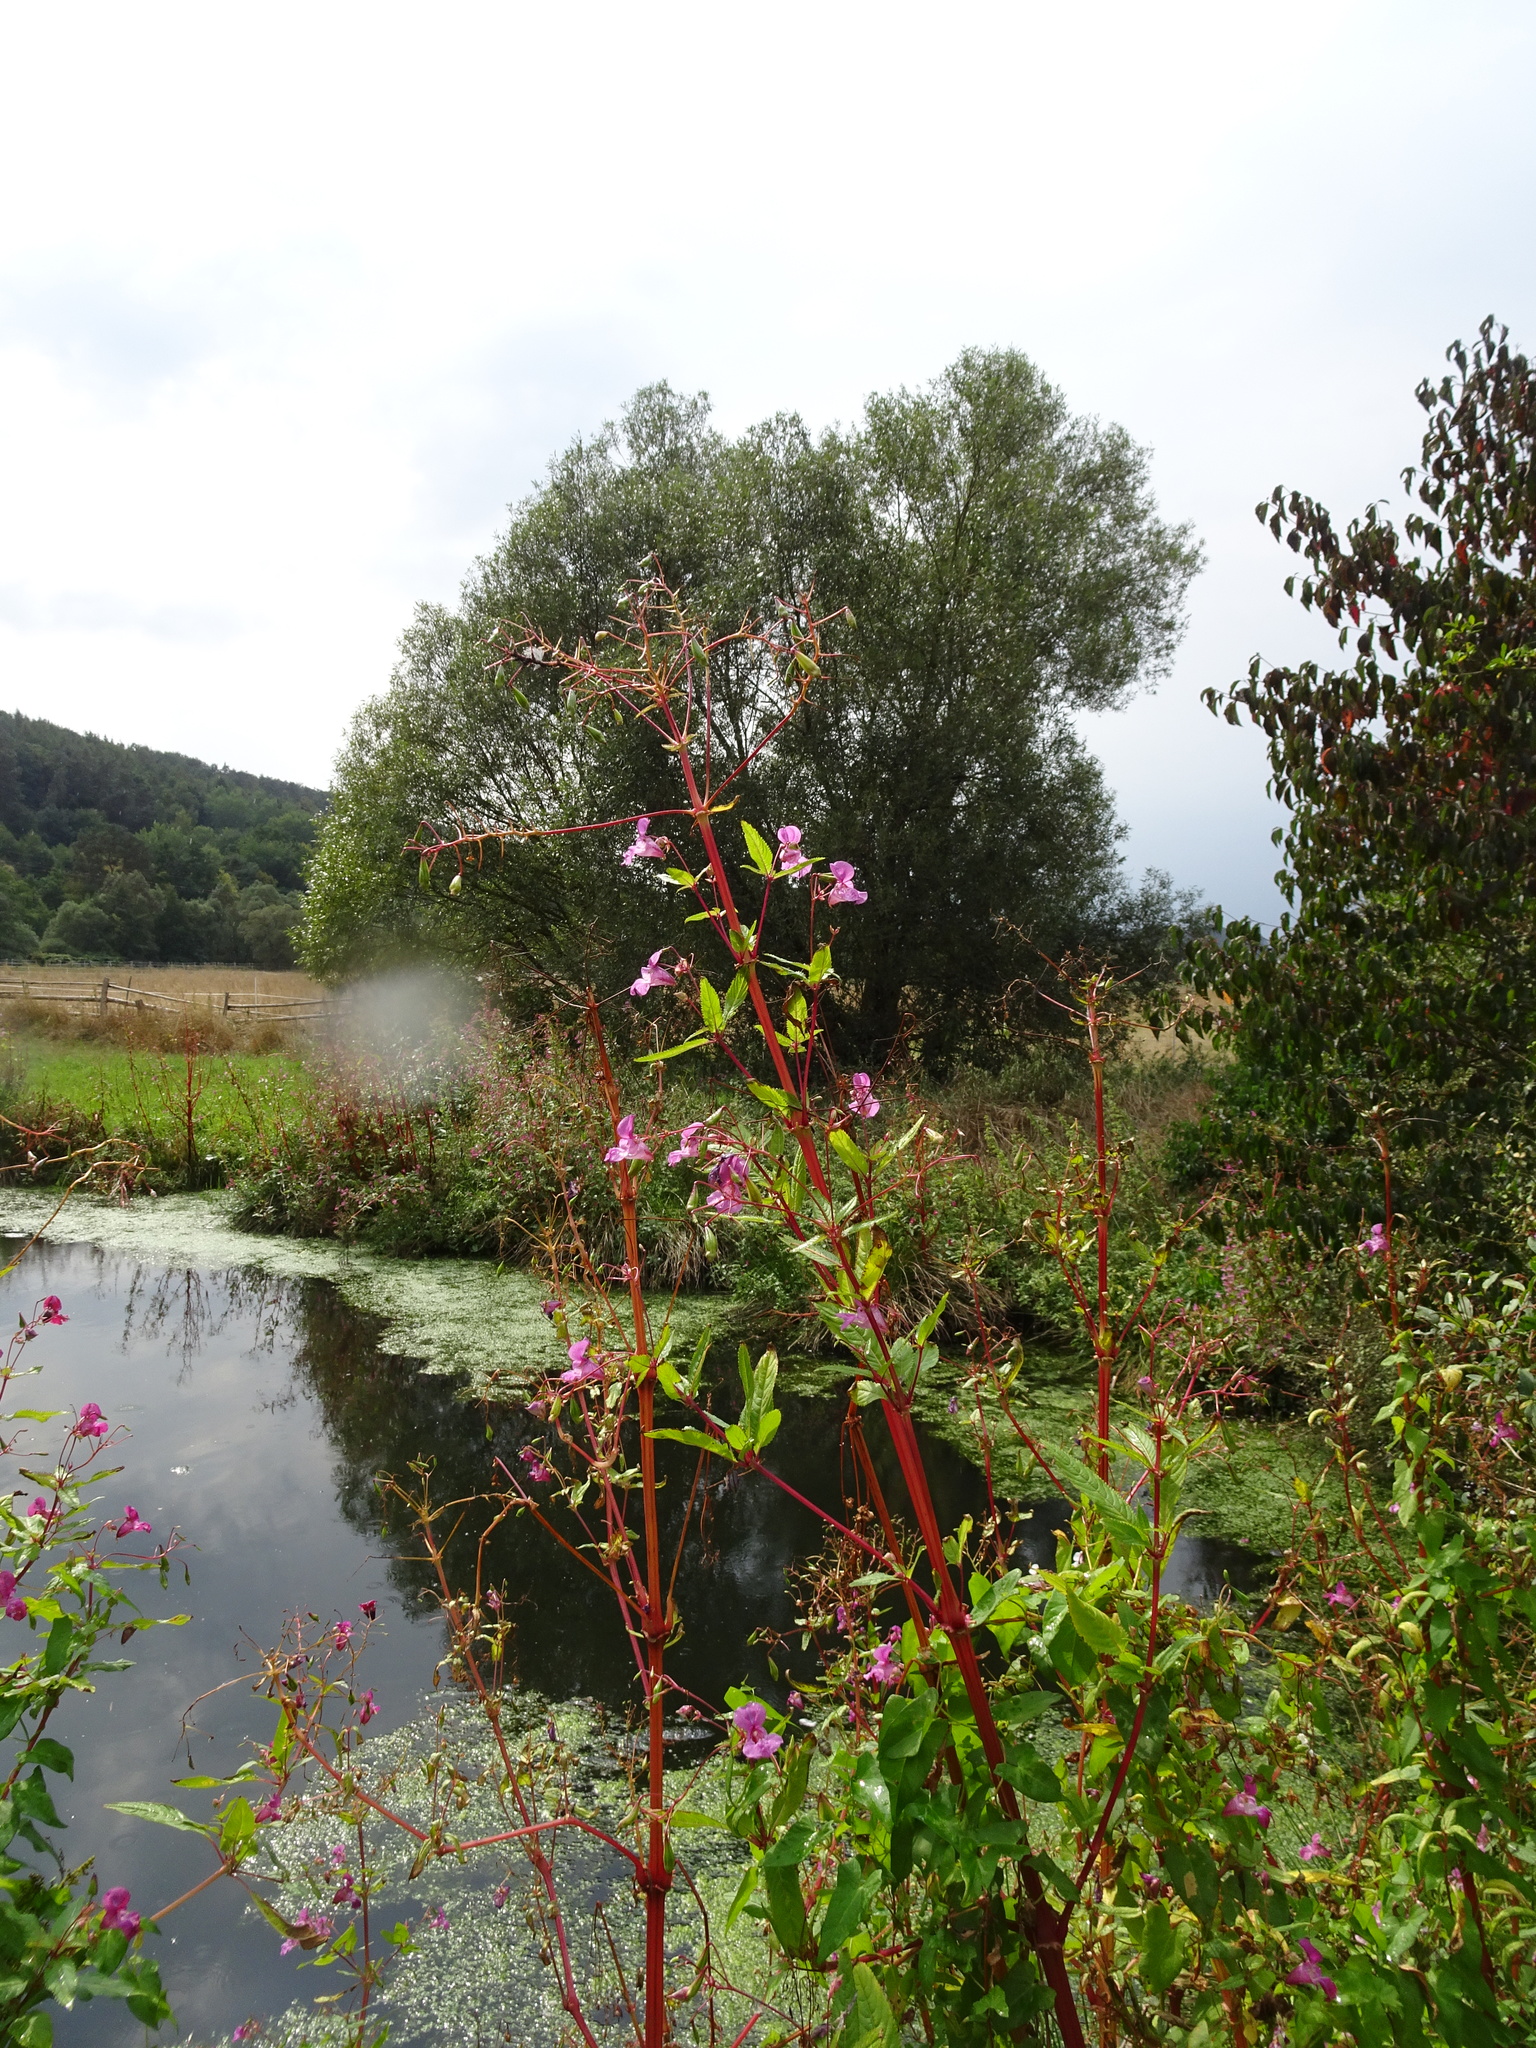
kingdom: Plantae
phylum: Tracheophyta
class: Magnoliopsida
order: Ericales
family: Balsaminaceae
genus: Impatiens
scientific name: Impatiens glandulifera
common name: Himalayan balsam
